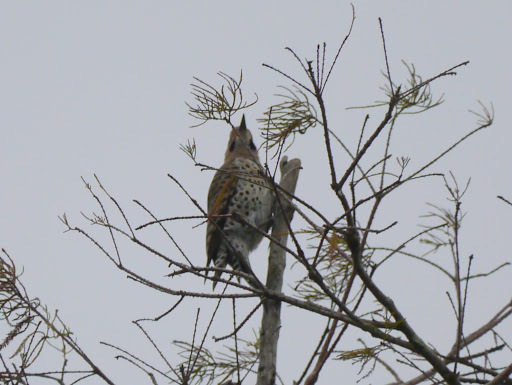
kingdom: Animalia
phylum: Chordata
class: Aves
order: Piciformes
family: Picidae
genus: Colaptes
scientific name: Colaptes auratus
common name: Northern flicker
